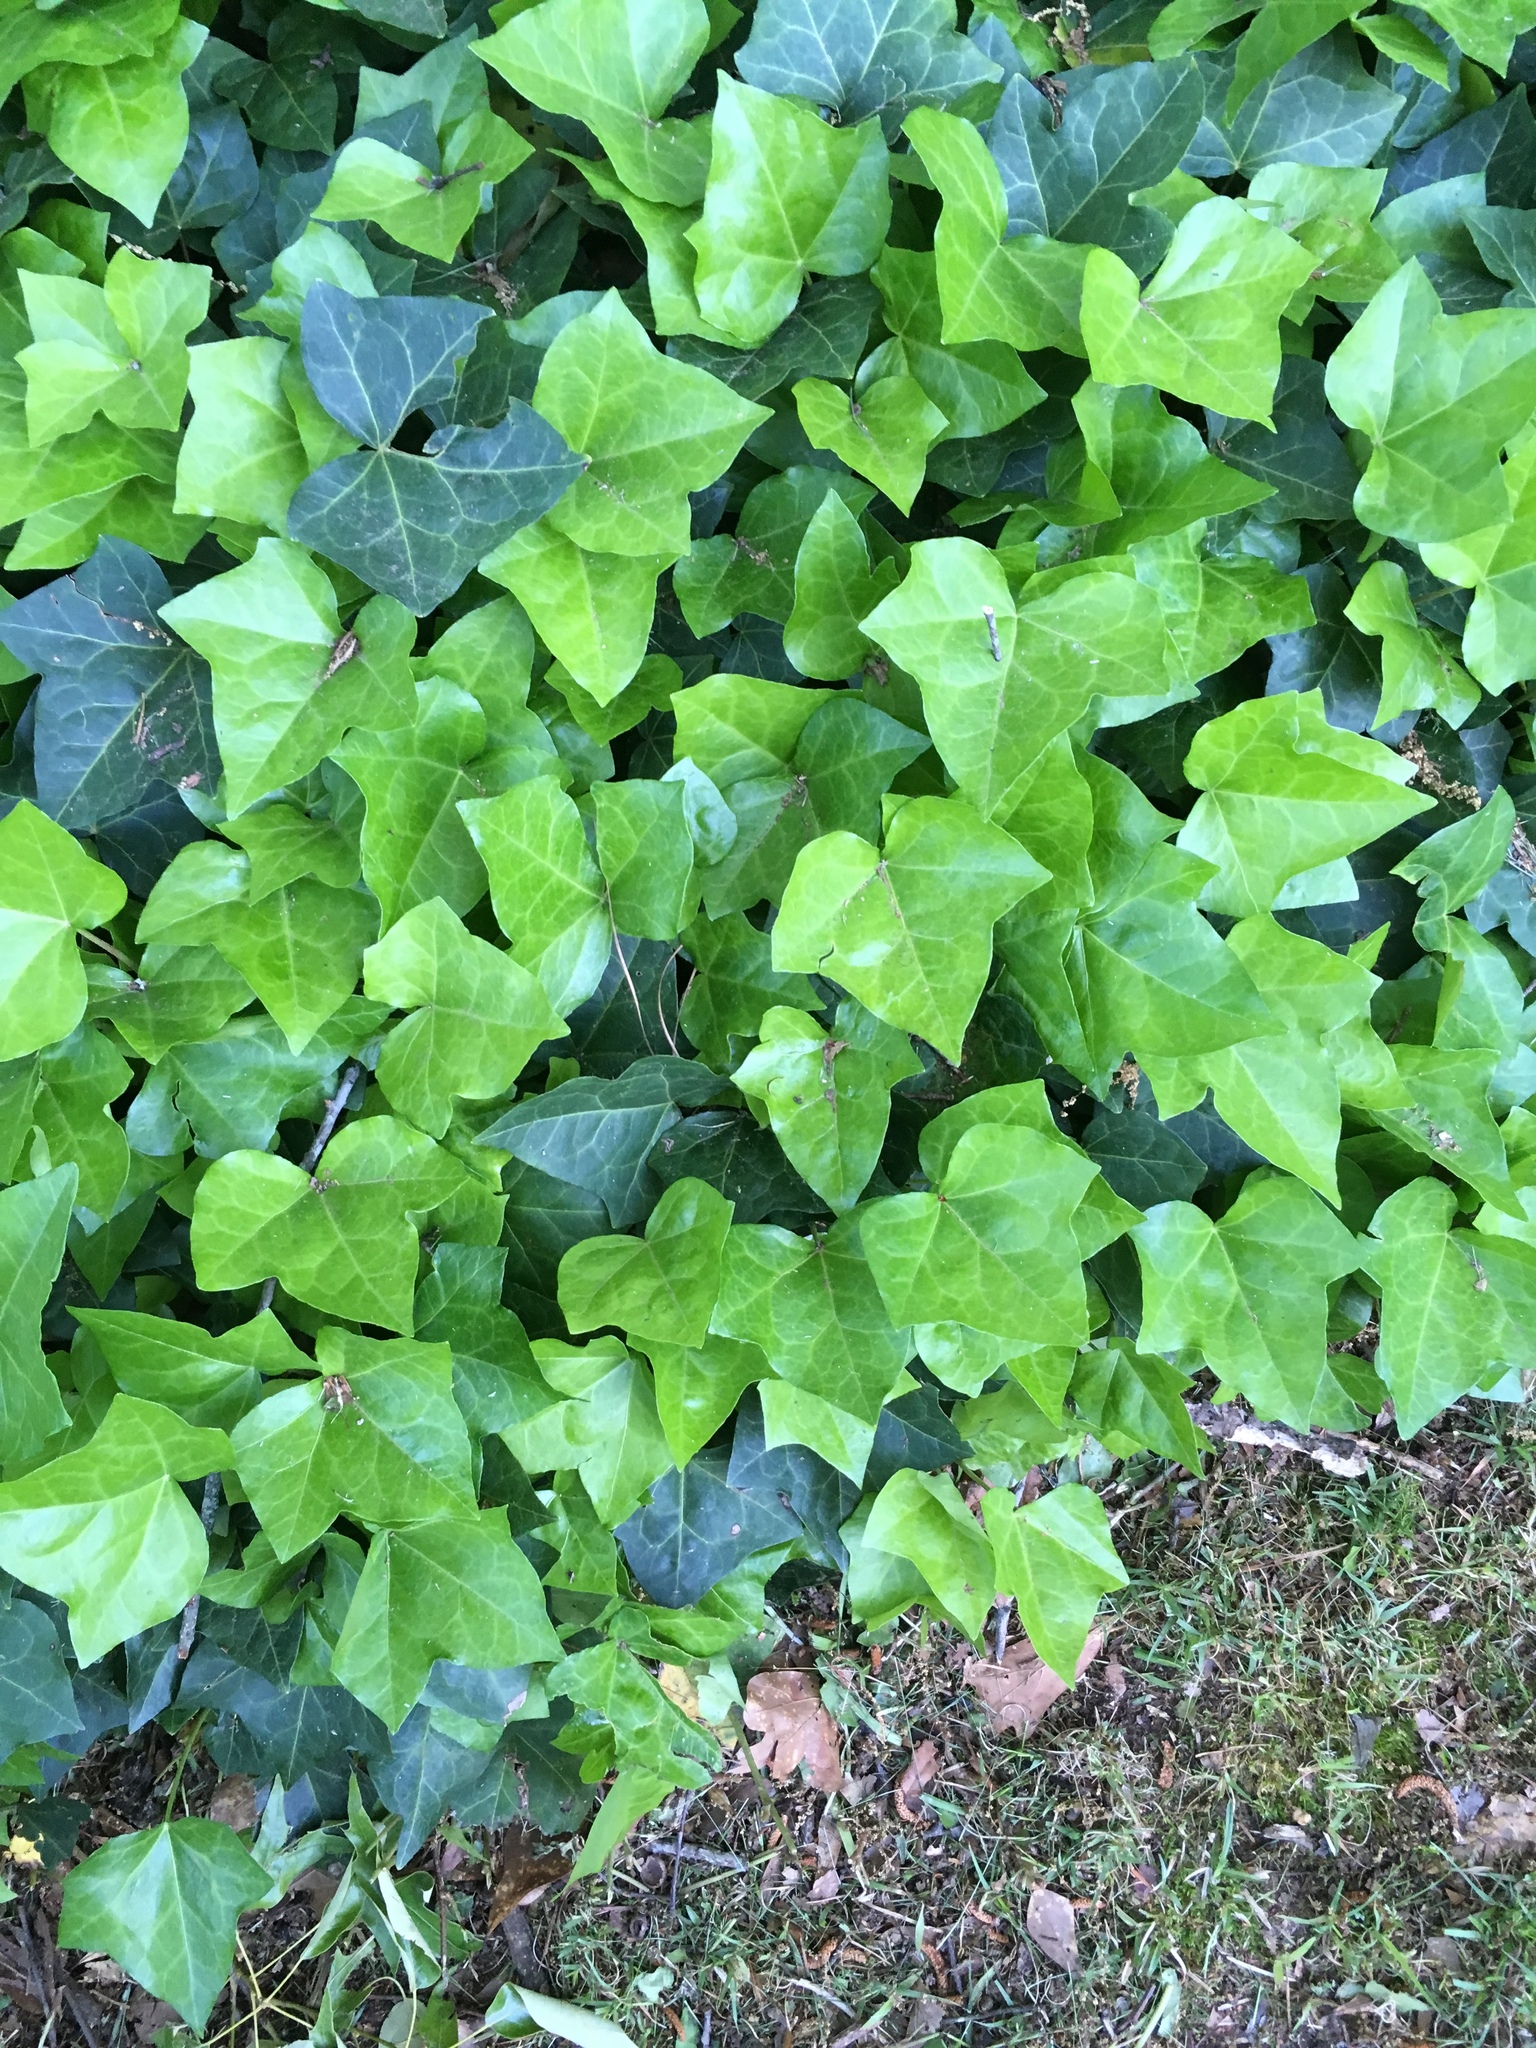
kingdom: Plantae
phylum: Tracheophyta
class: Magnoliopsida
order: Apiales
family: Araliaceae
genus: Hedera
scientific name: Hedera helix
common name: Ivy
